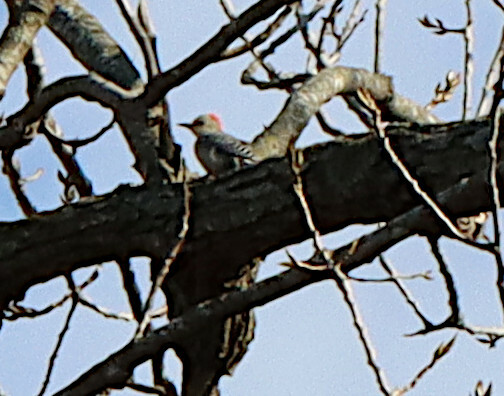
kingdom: Animalia
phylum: Chordata
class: Aves
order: Piciformes
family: Picidae
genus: Melanerpes
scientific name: Melanerpes carolinus
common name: Red-bellied woodpecker
